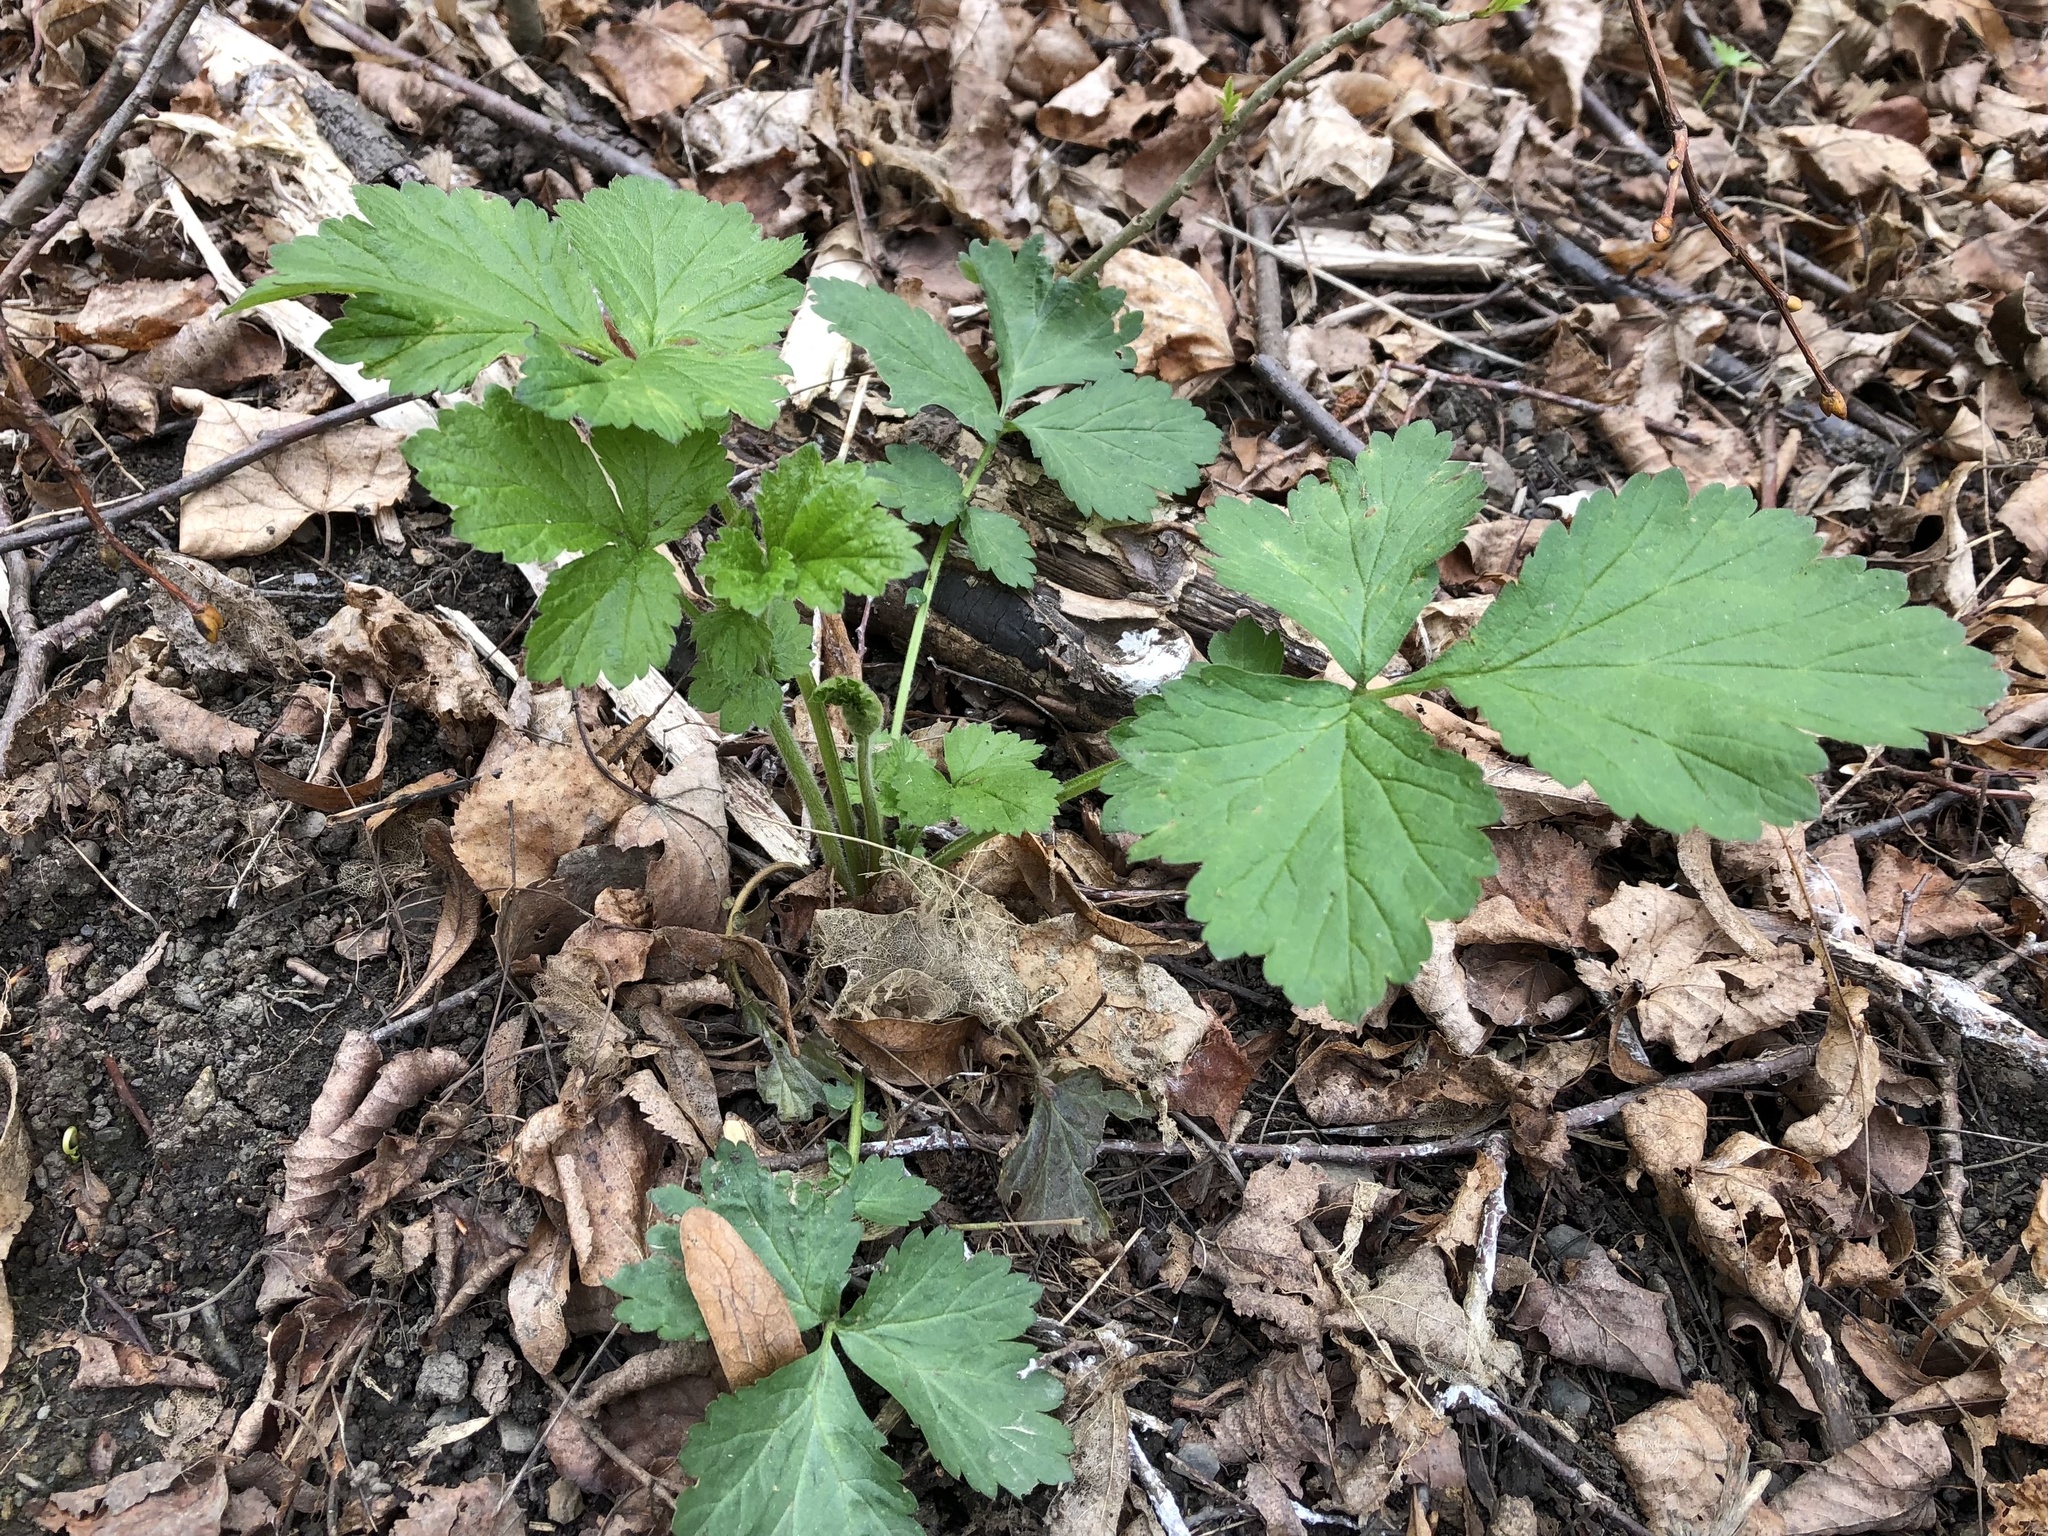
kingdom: Plantae
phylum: Tracheophyta
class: Magnoliopsida
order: Rosales
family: Rosaceae
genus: Geum
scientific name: Geum urbanum
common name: Wood avens
